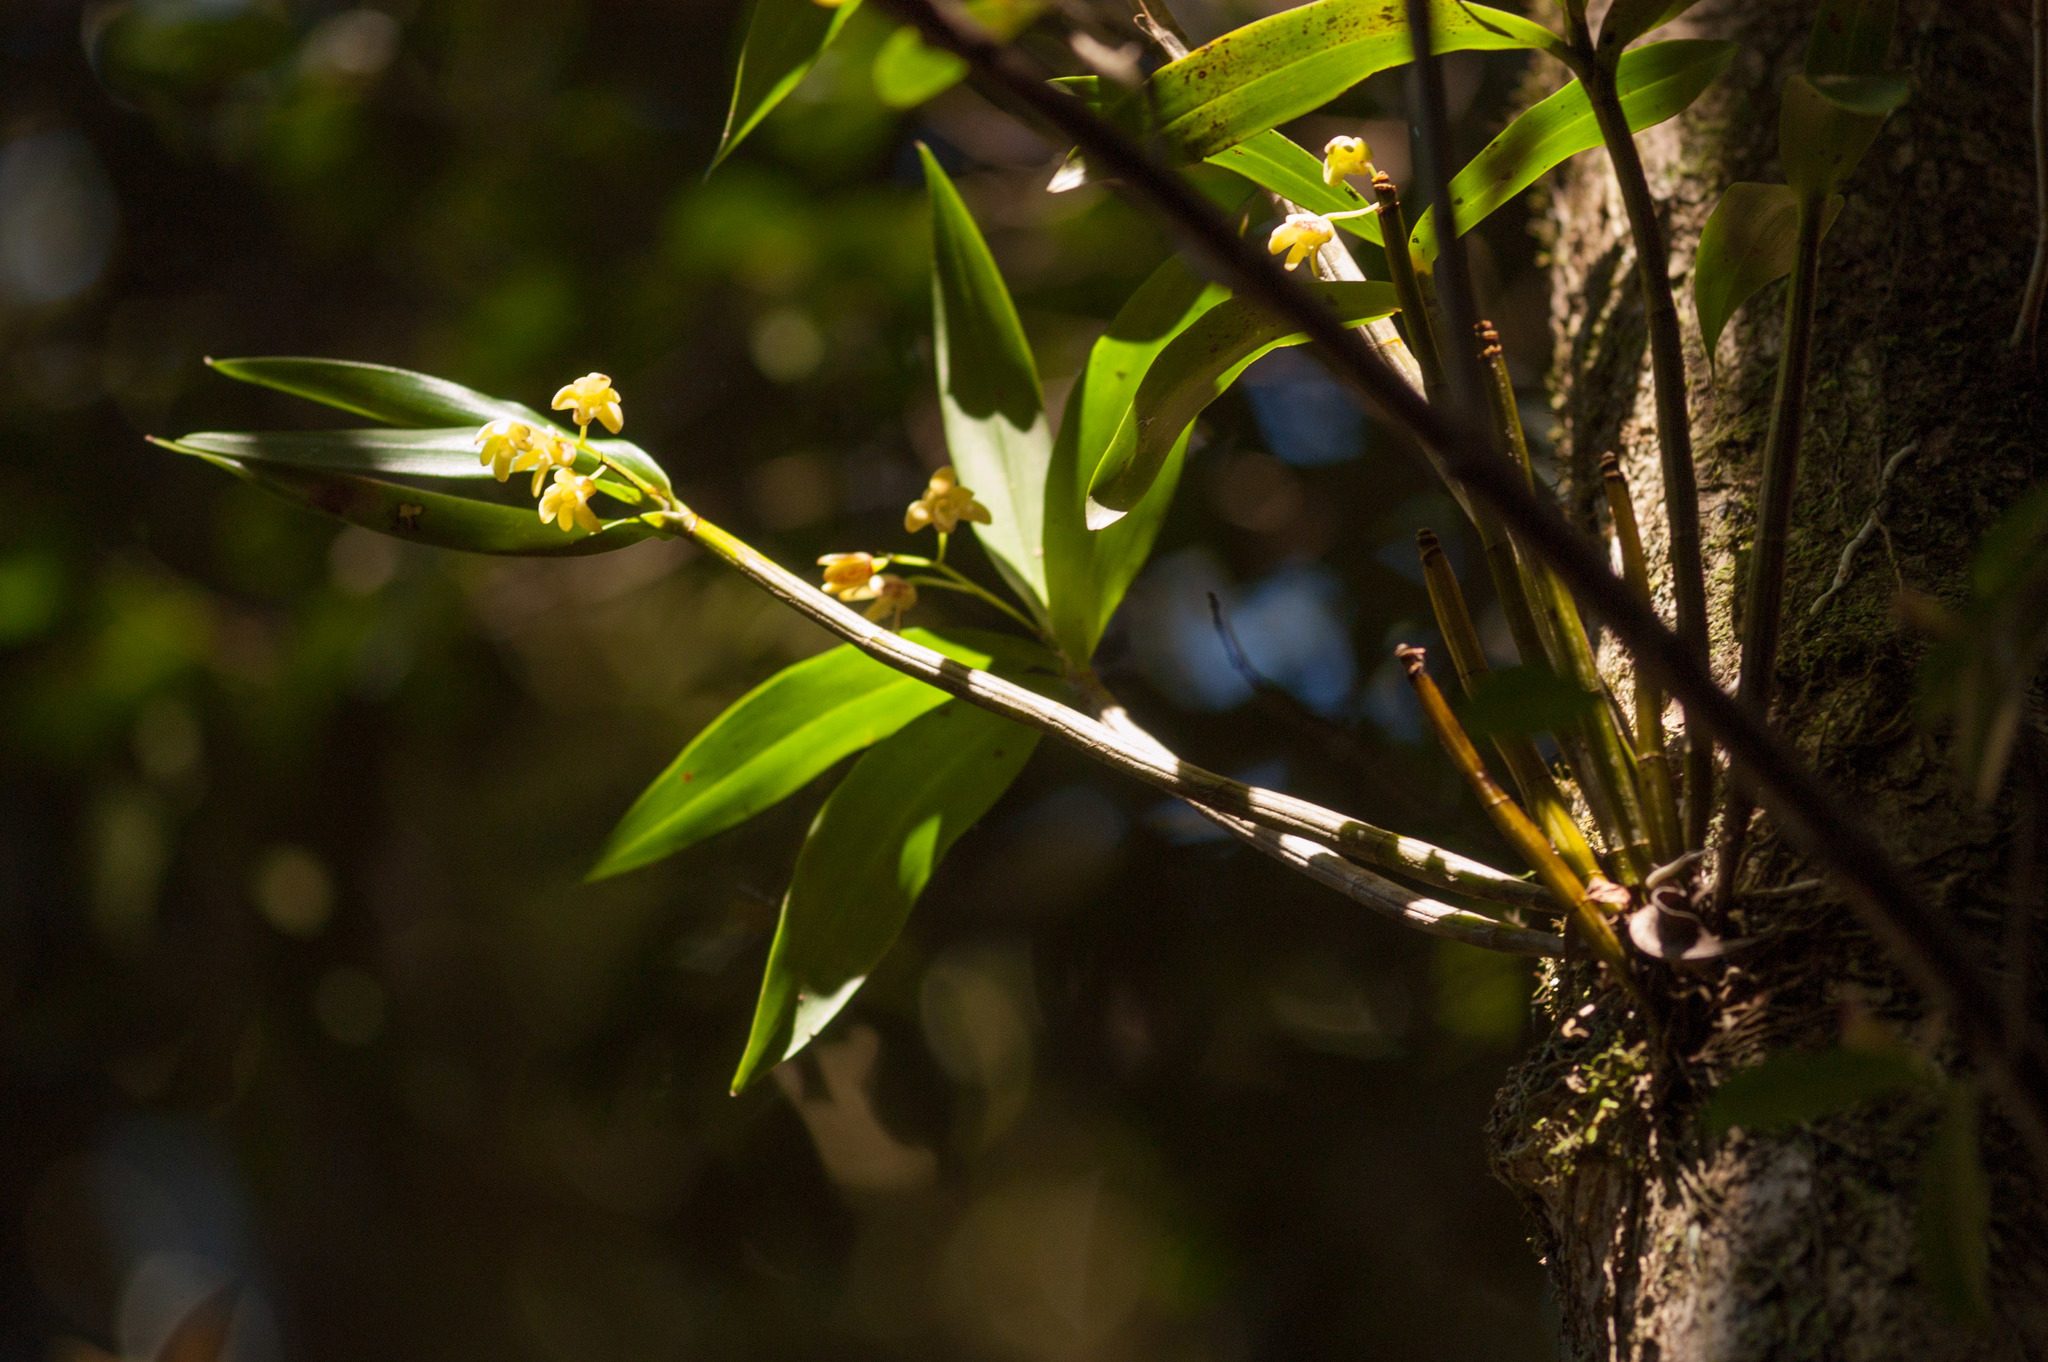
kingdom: Plantae
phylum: Tracheophyta
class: Liliopsida
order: Asparagales
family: Orchidaceae
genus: Dendrobium
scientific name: Dendrobium gracilicaule
